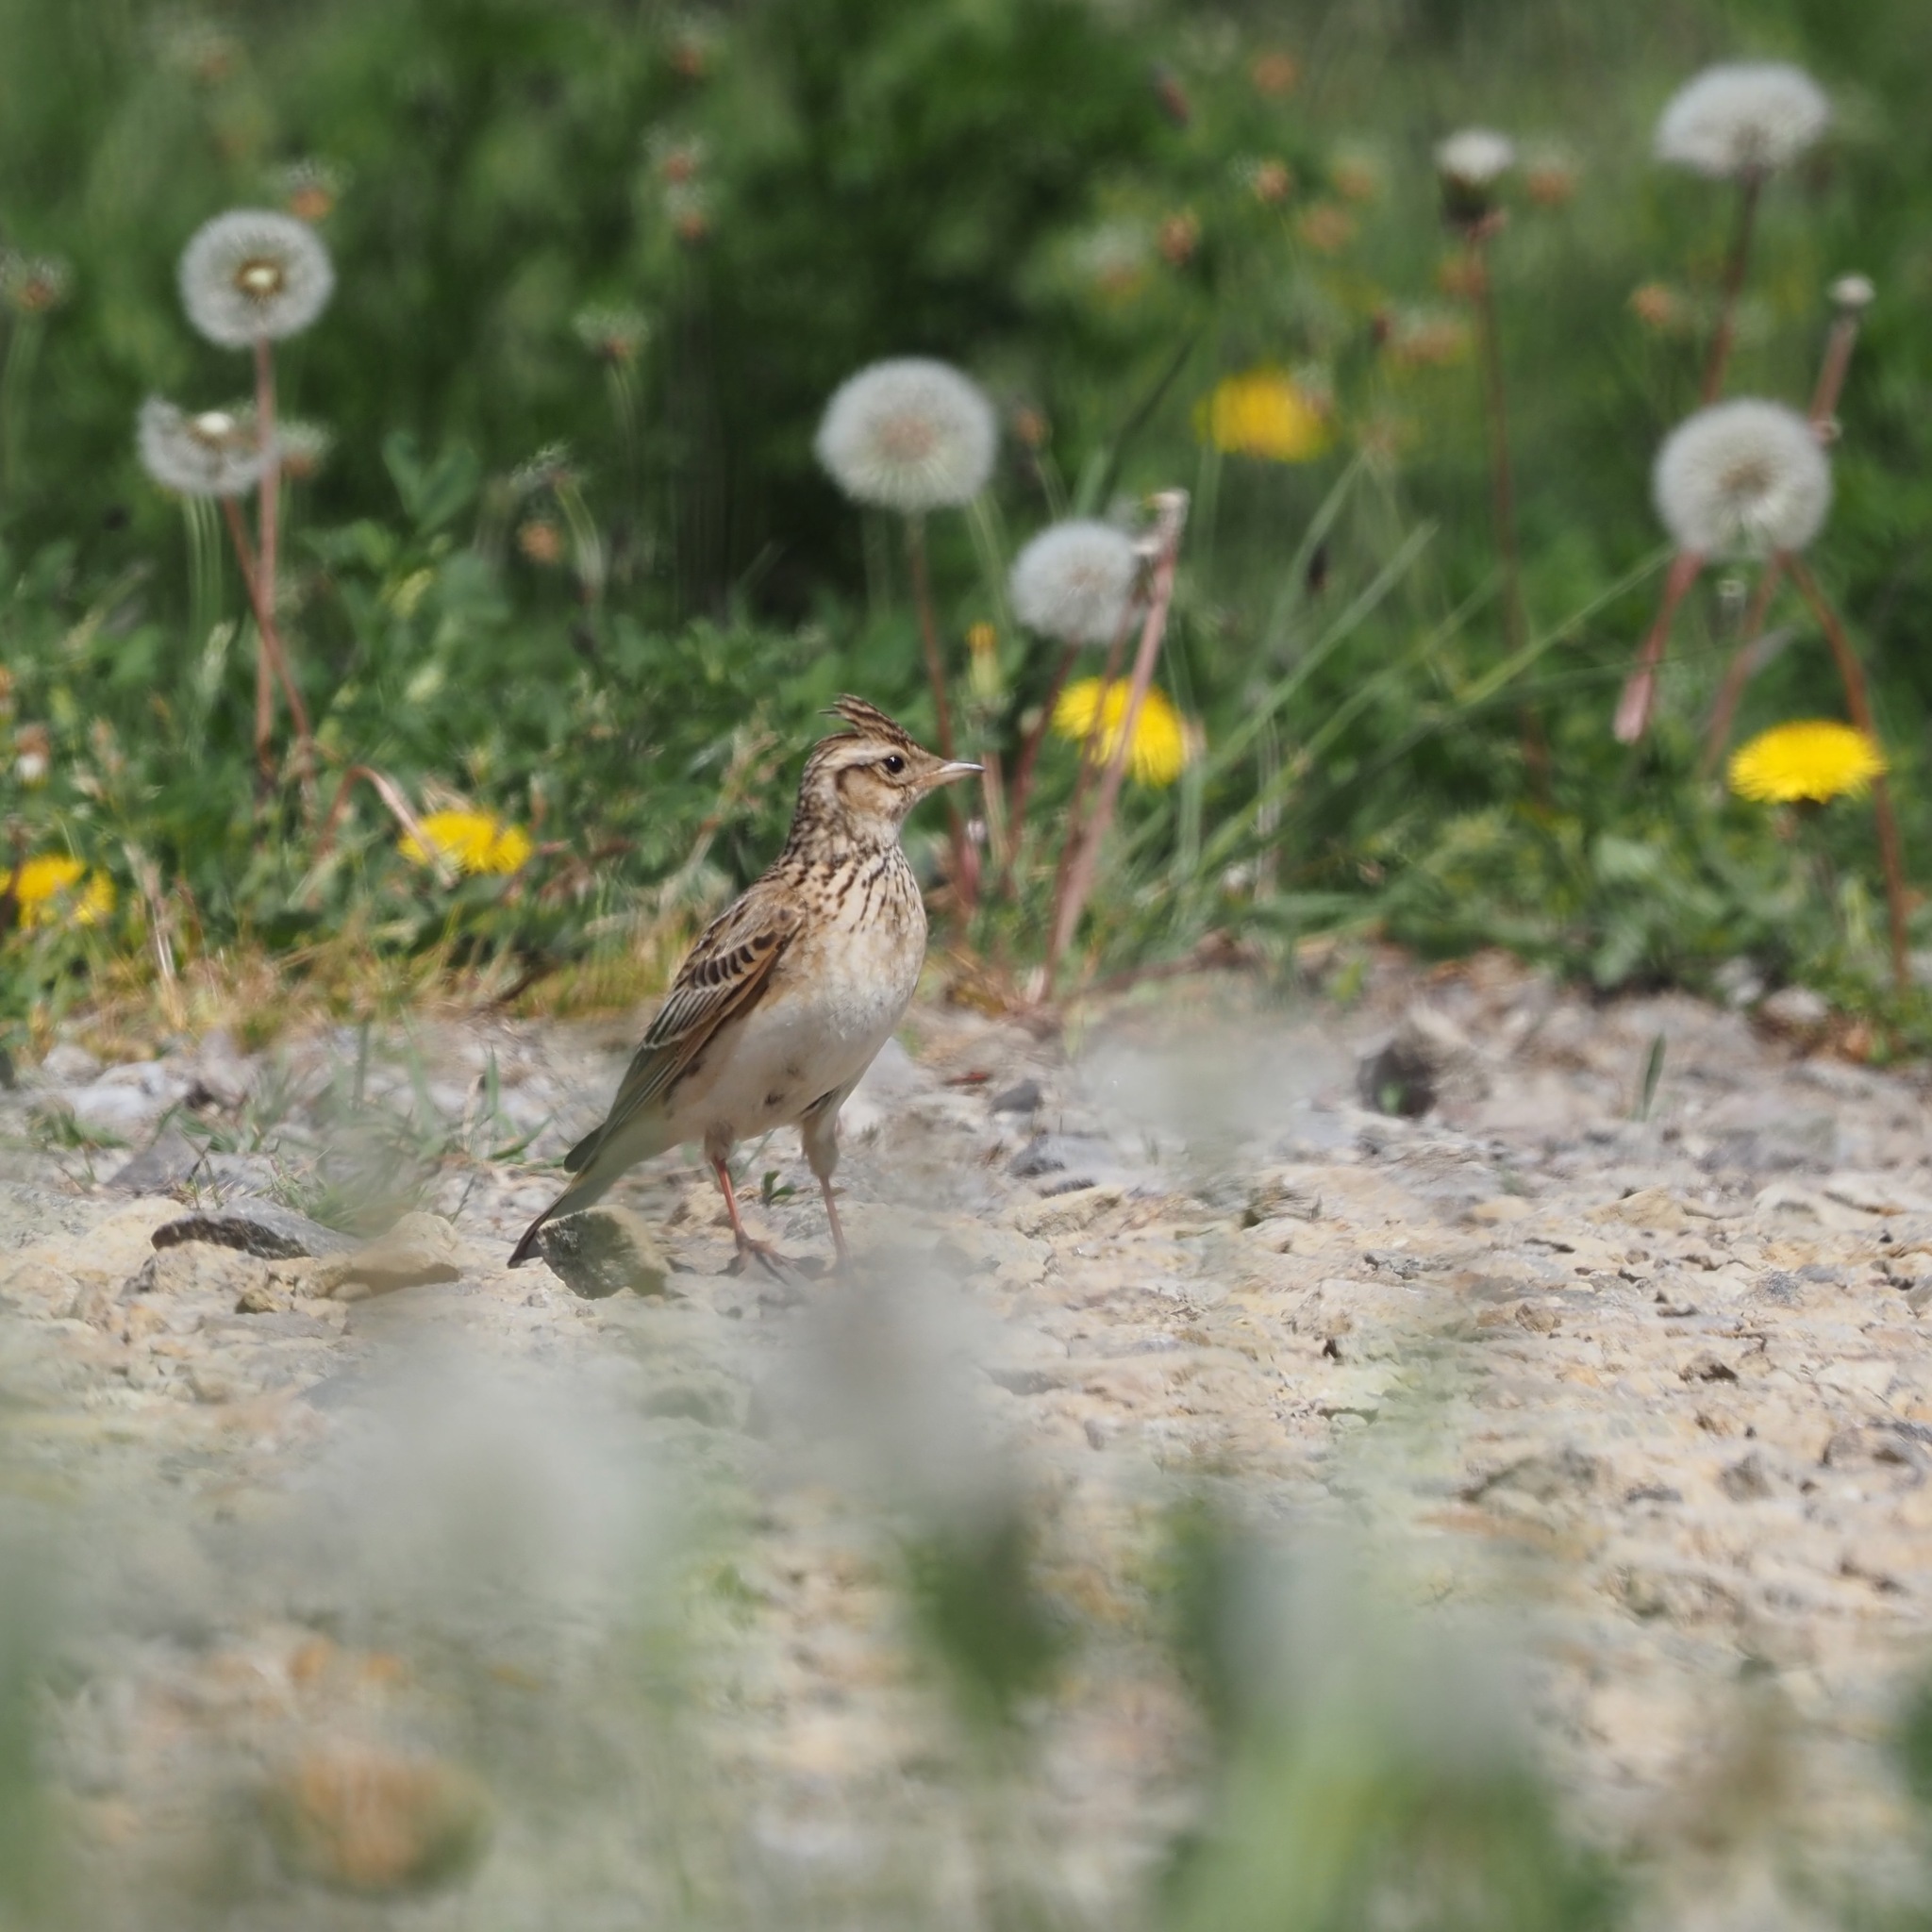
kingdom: Animalia
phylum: Chordata
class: Aves
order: Passeriformes
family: Alaudidae
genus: Alauda
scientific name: Alauda arvensis
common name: Eurasian skylark
